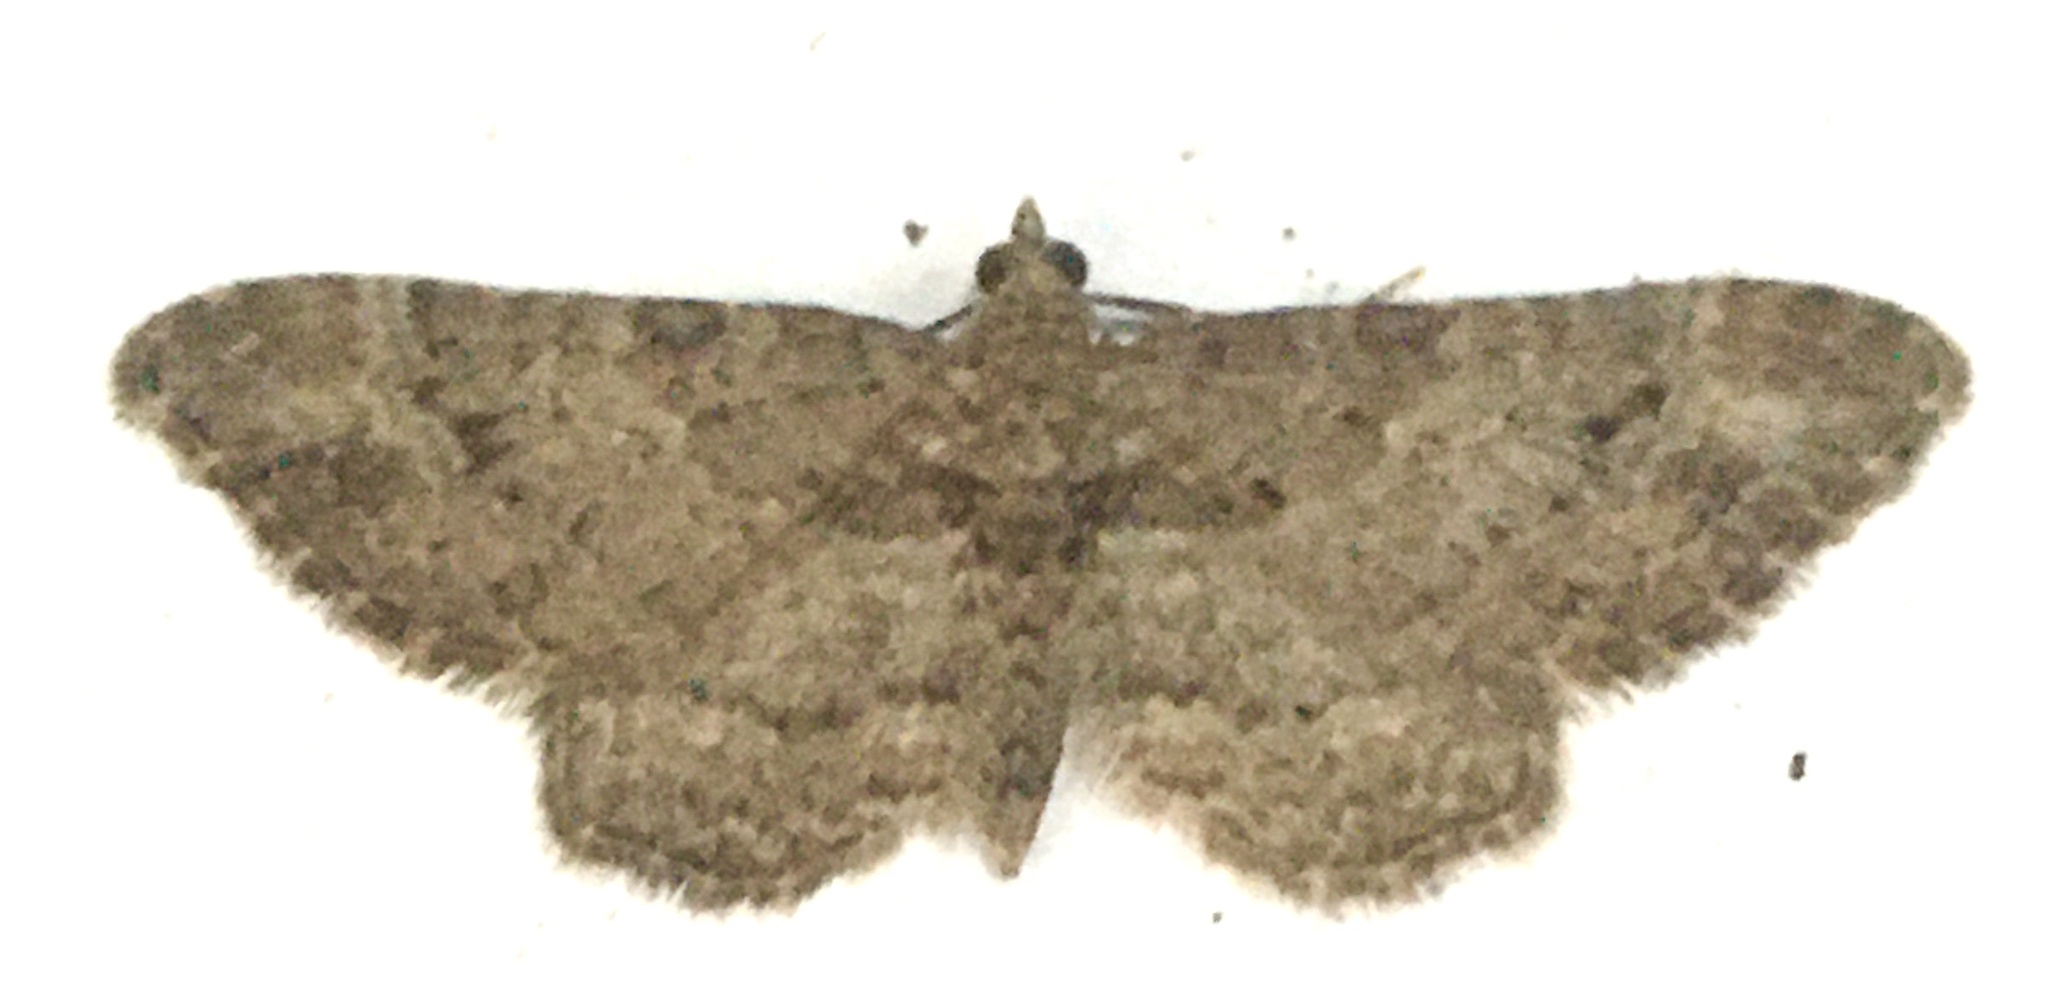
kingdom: Animalia
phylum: Arthropoda
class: Insecta
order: Lepidoptera
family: Geometridae
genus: Gymnoscelis
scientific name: Gymnoscelis rufifasciata
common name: Double-striped pug
